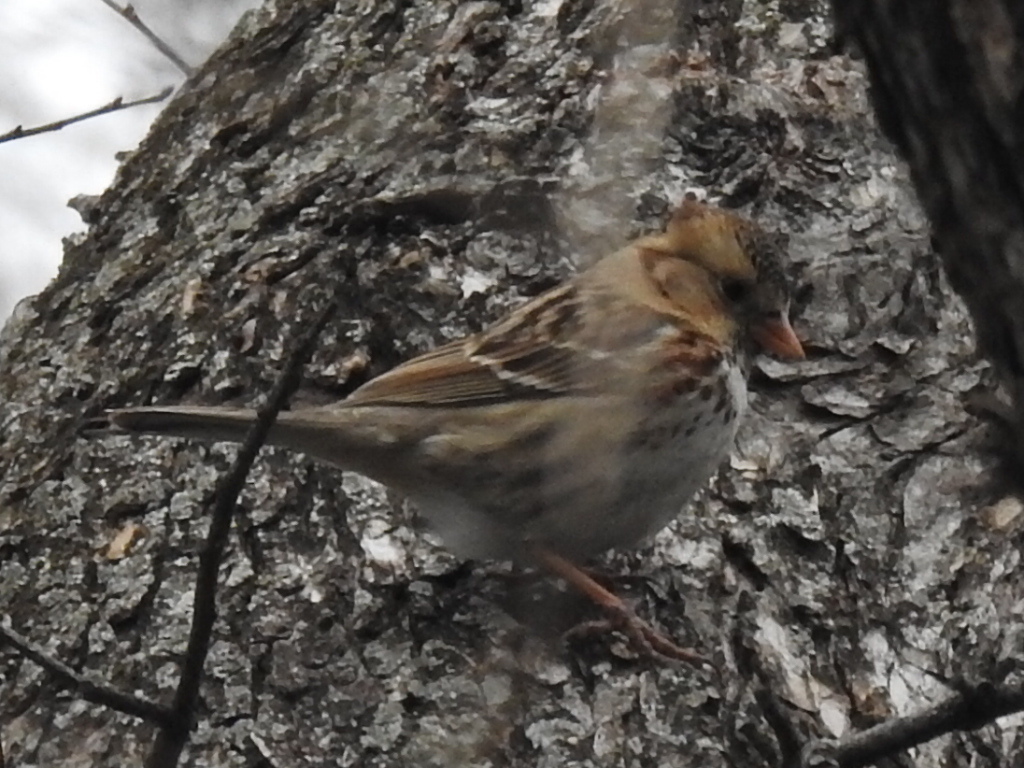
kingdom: Animalia
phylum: Chordata
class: Aves
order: Passeriformes
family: Passerellidae
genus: Zonotrichia
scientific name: Zonotrichia querula
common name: Harris's sparrow
